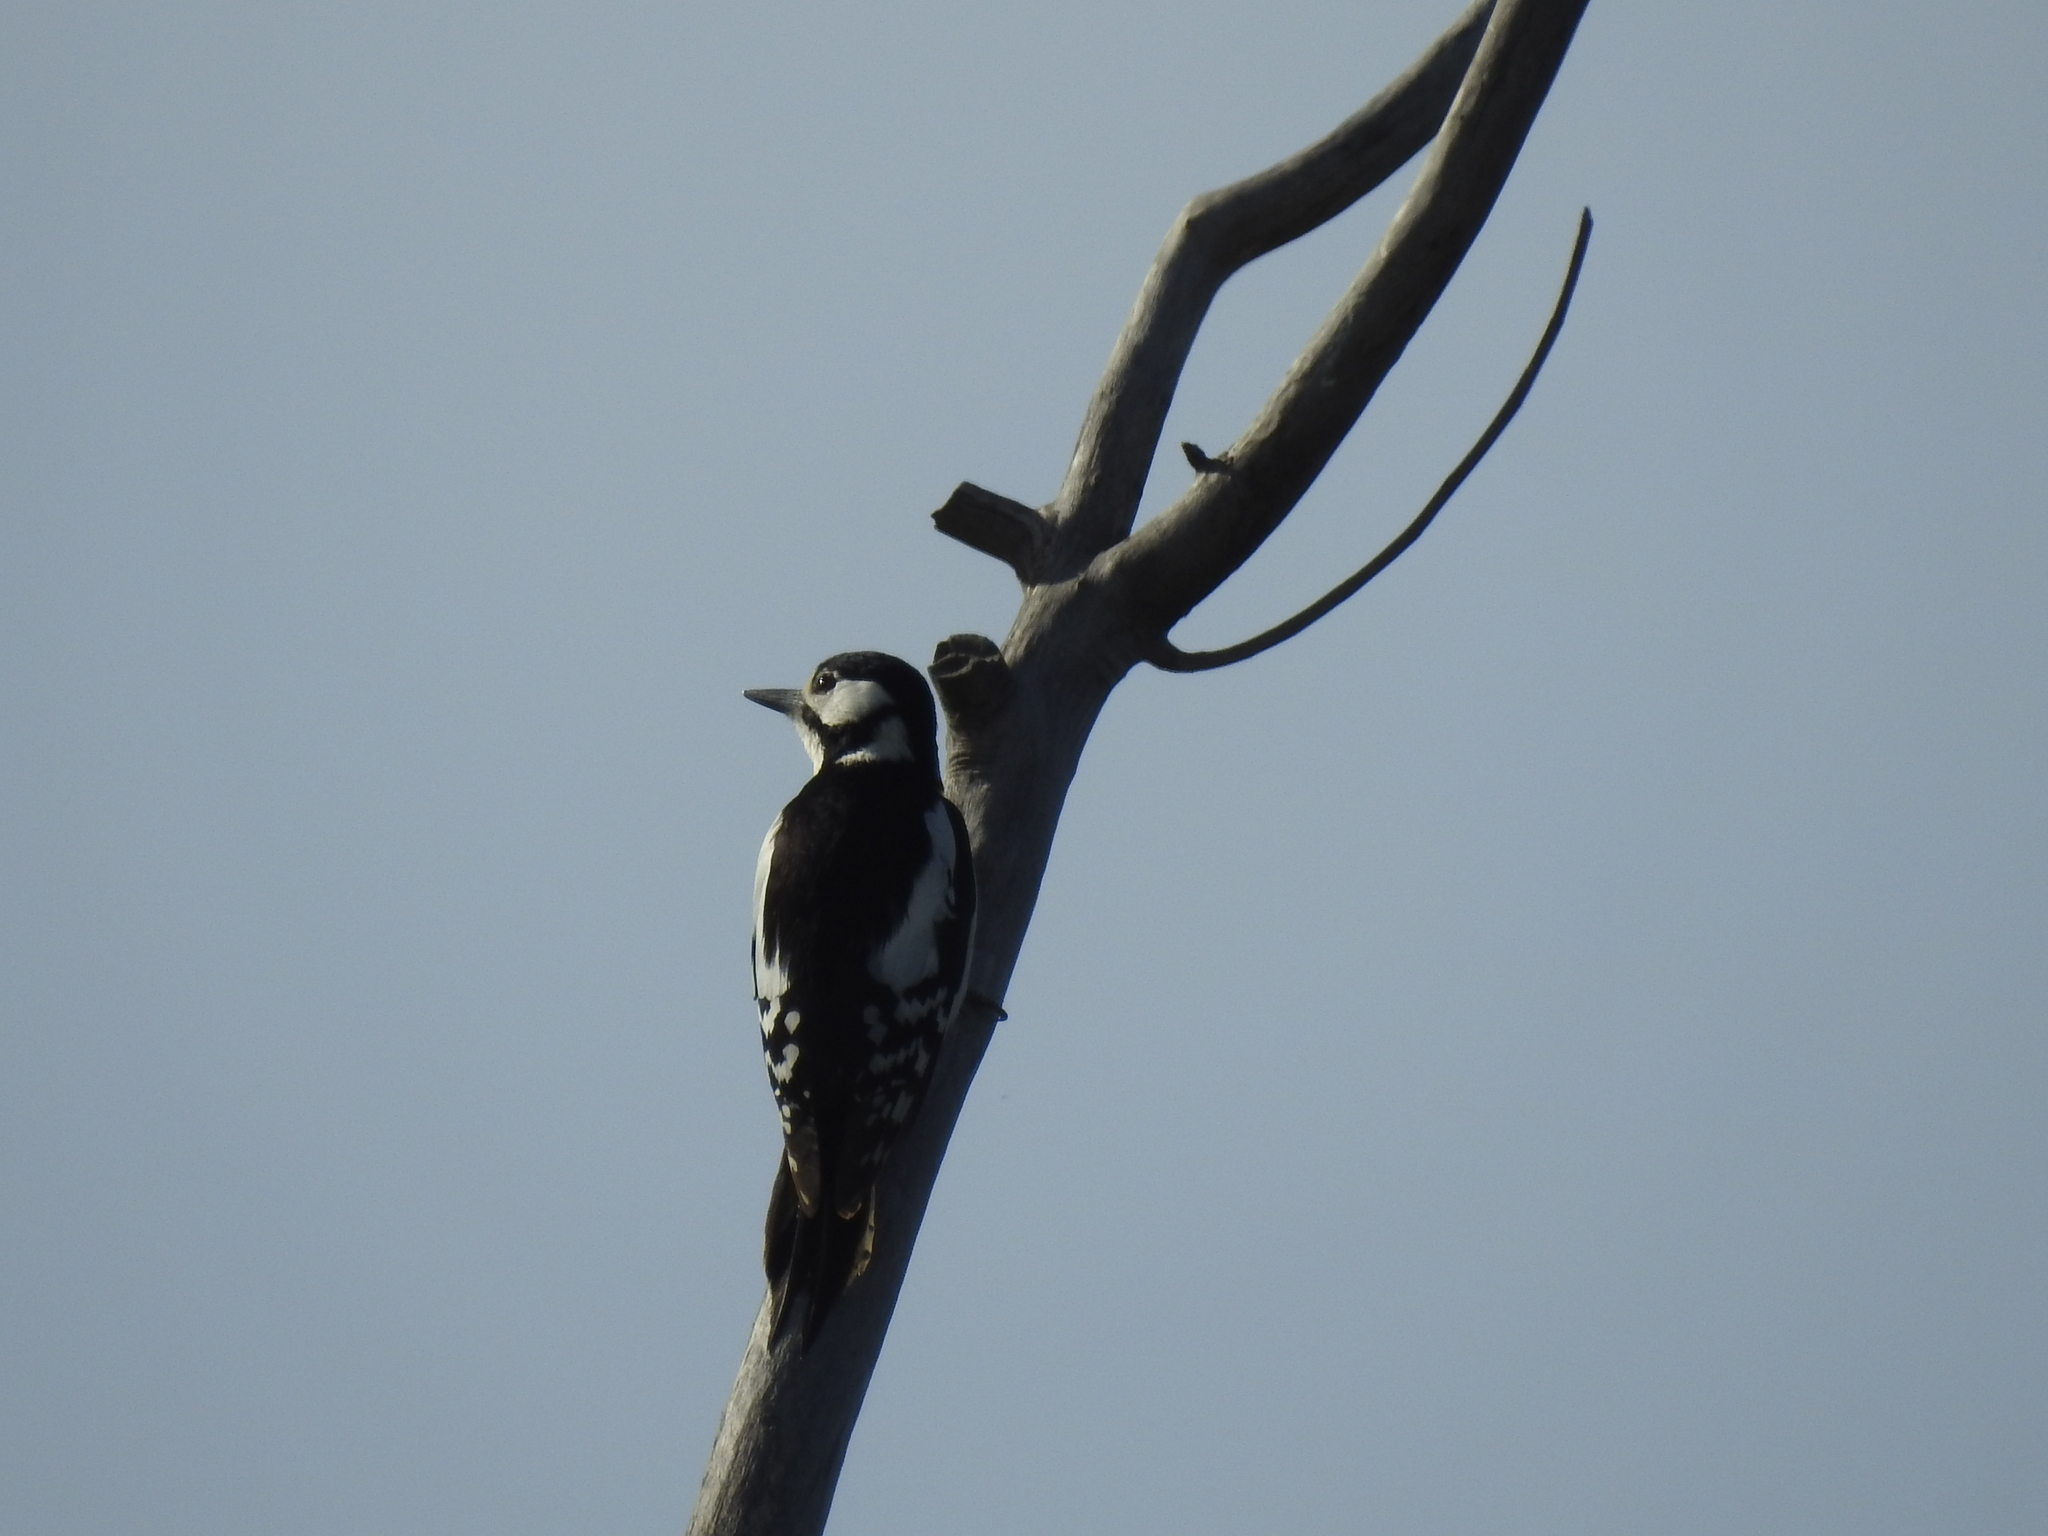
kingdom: Animalia
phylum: Chordata
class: Aves
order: Piciformes
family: Picidae
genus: Dendrocopos
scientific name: Dendrocopos major
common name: Great spotted woodpecker
